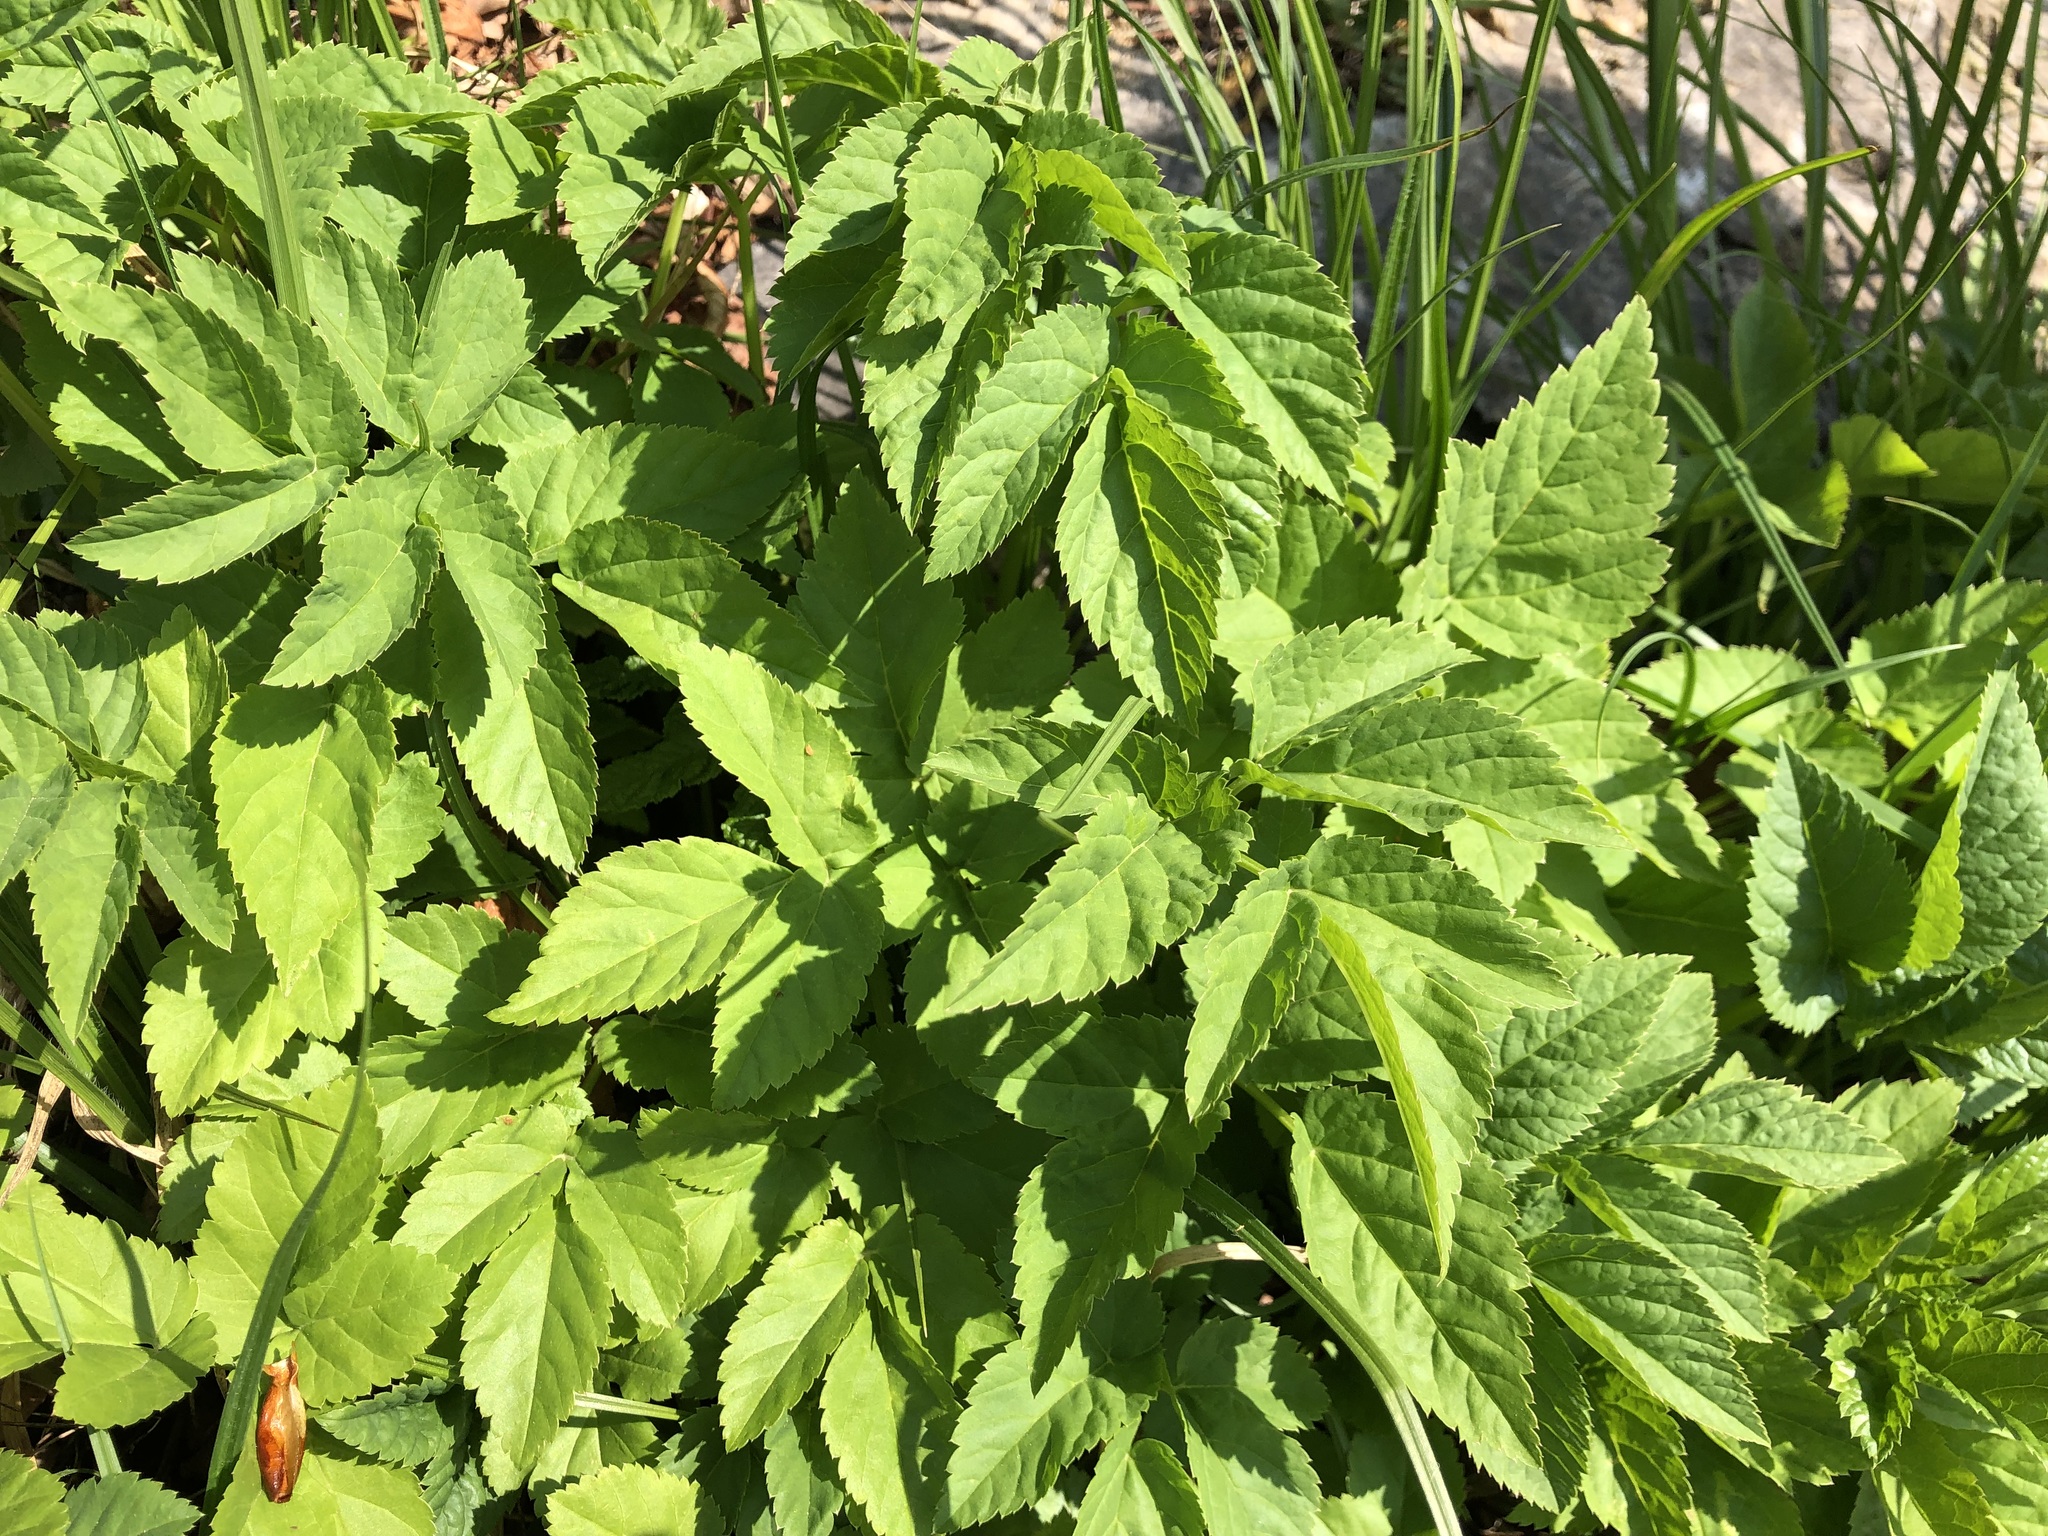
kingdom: Plantae
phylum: Tracheophyta
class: Magnoliopsida
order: Apiales
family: Apiaceae
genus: Aegopodium
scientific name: Aegopodium podagraria
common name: Ground-elder
